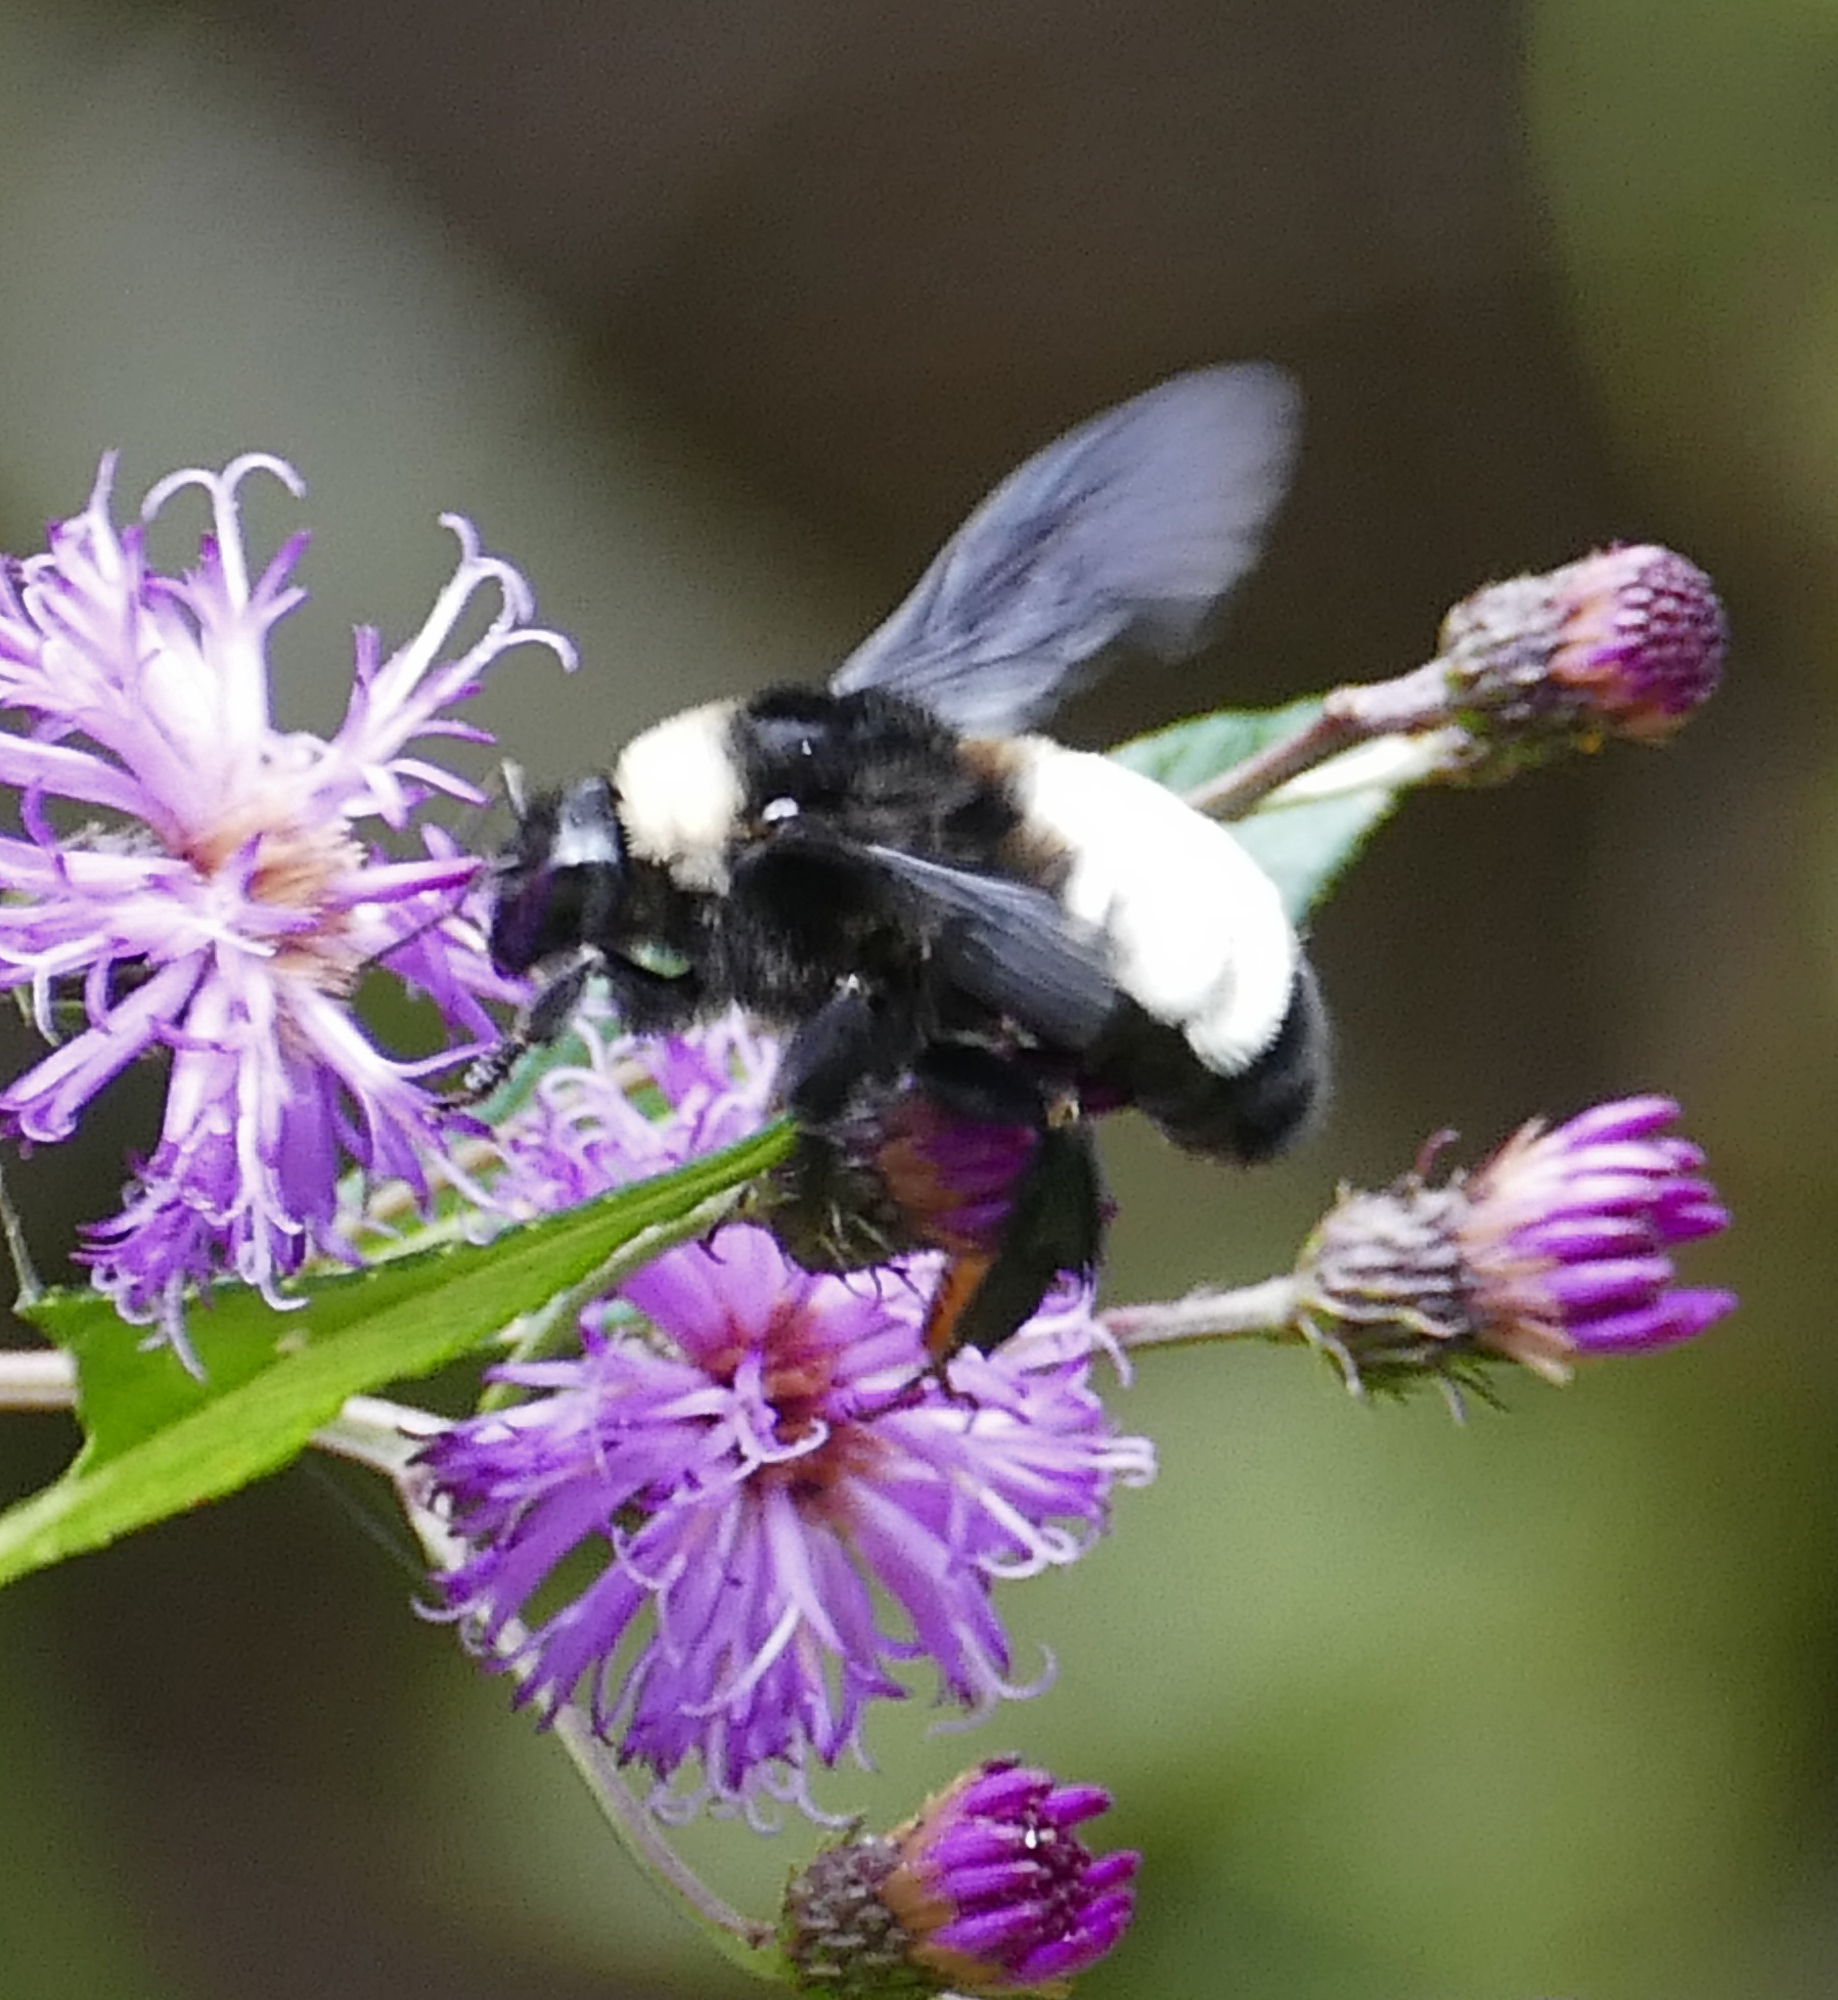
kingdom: Animalia
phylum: Arthropoda
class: Insecta
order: Hymenoptera
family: Apidae
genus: Bombus
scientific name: Bombus pensylvanicus
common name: Bumble bee
